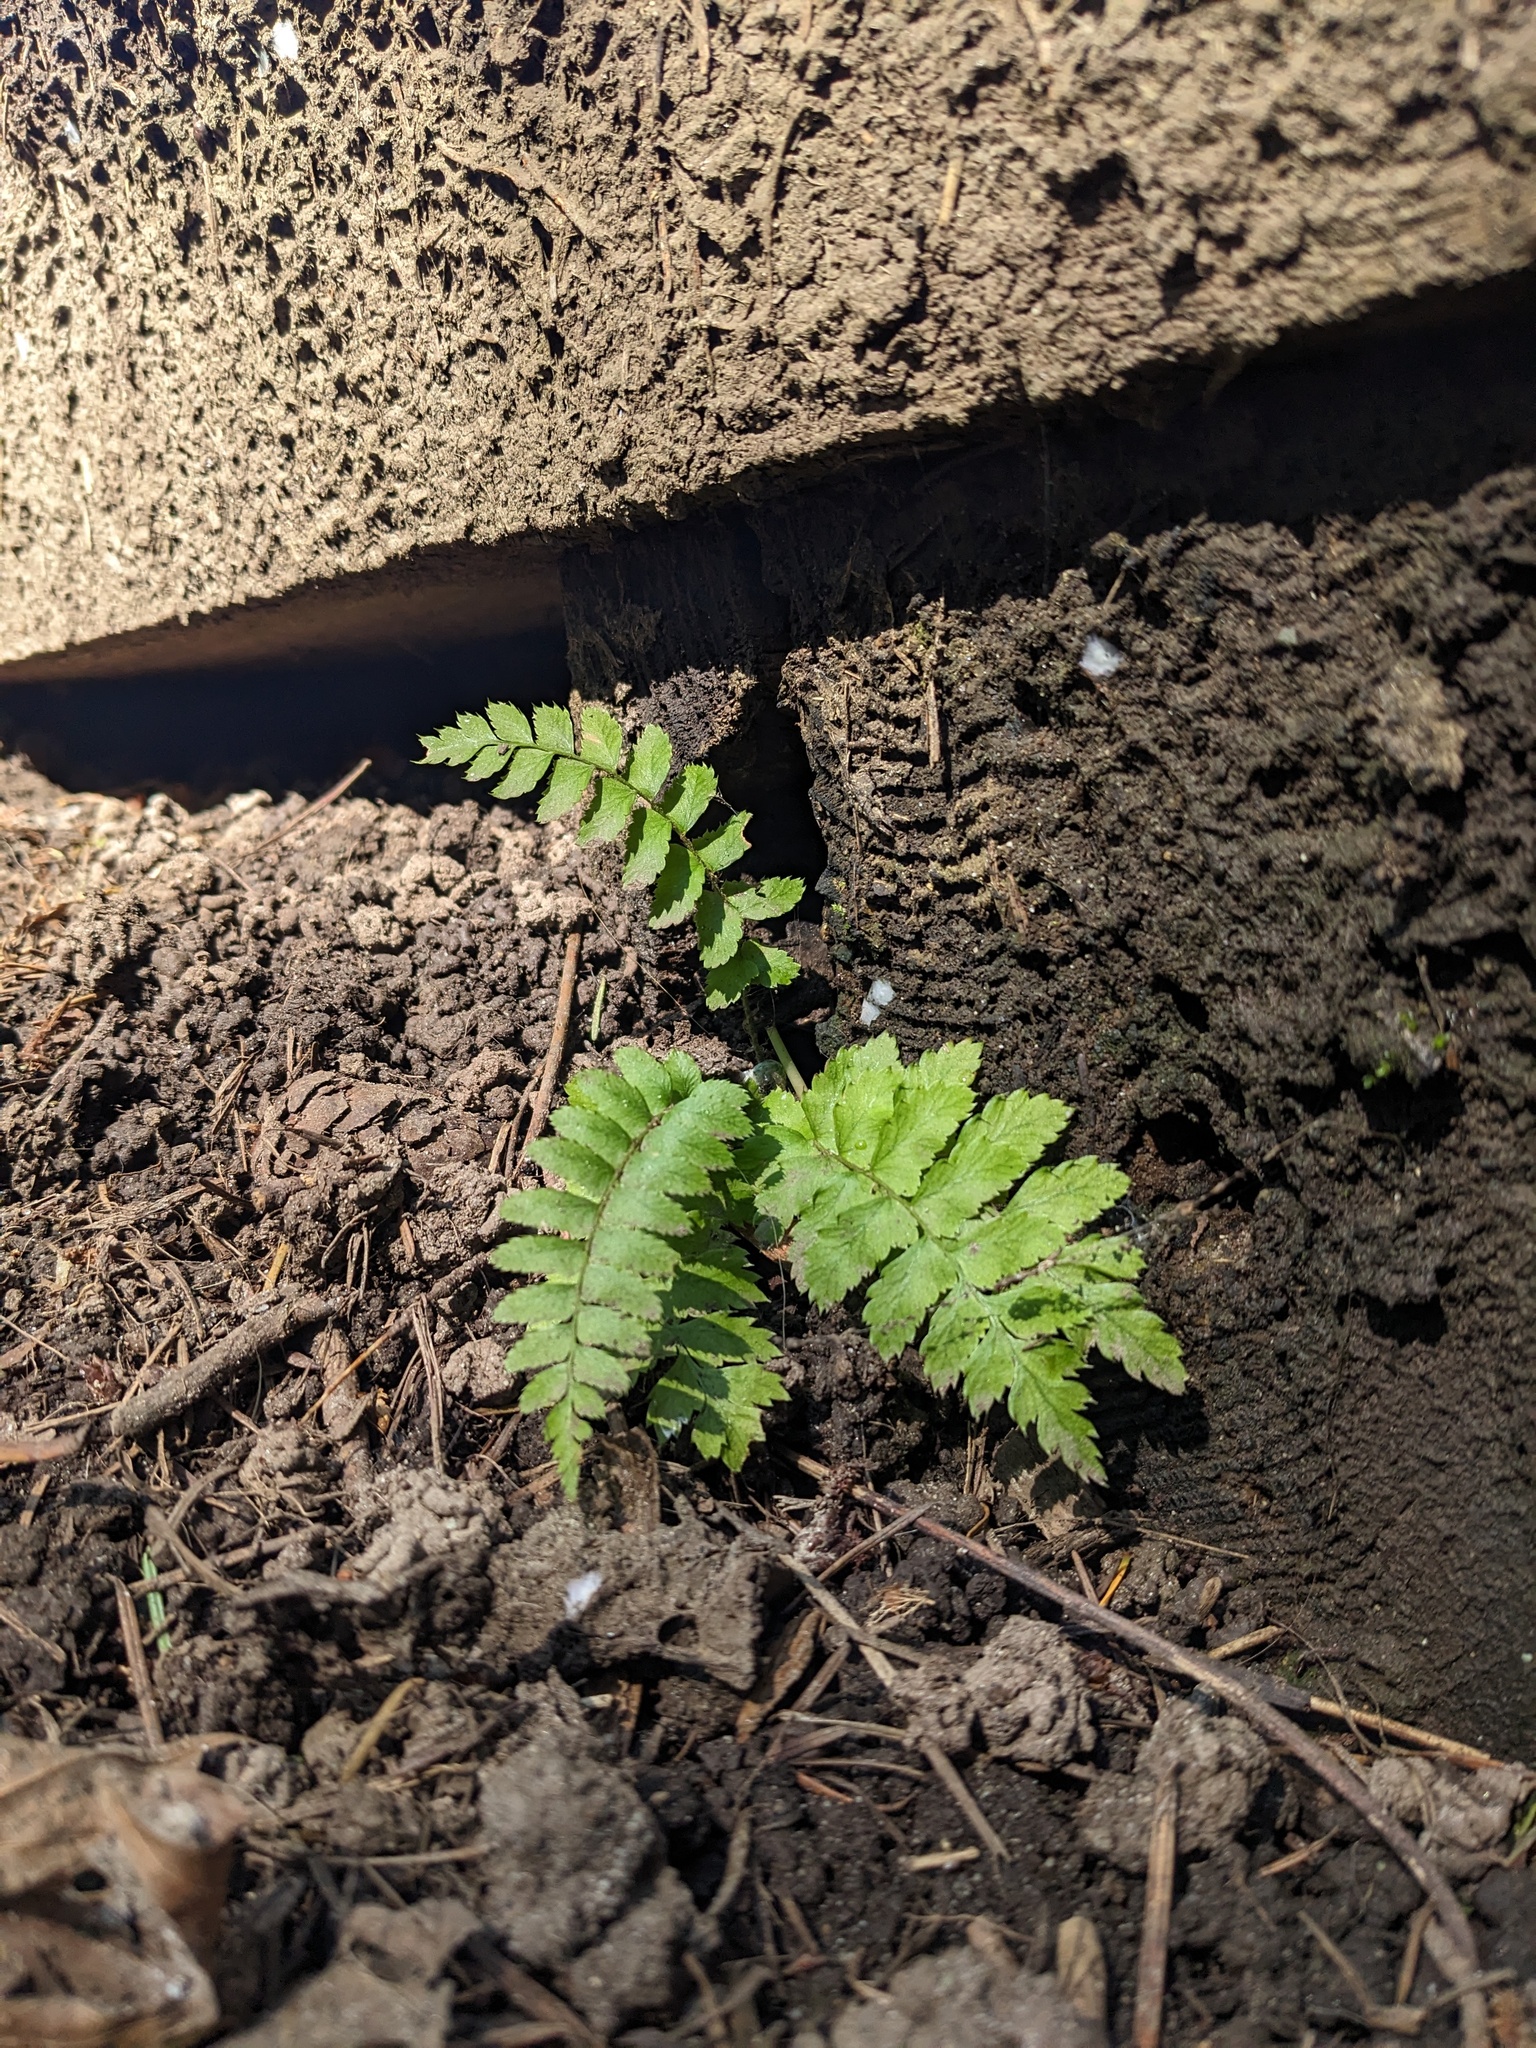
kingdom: Plantae
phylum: Tracheophyta
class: Polypodiopsida
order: Polypodiales
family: Dryopteridaceae
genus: Polystichum
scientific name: Polystichum munitum
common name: Western sword-fern
